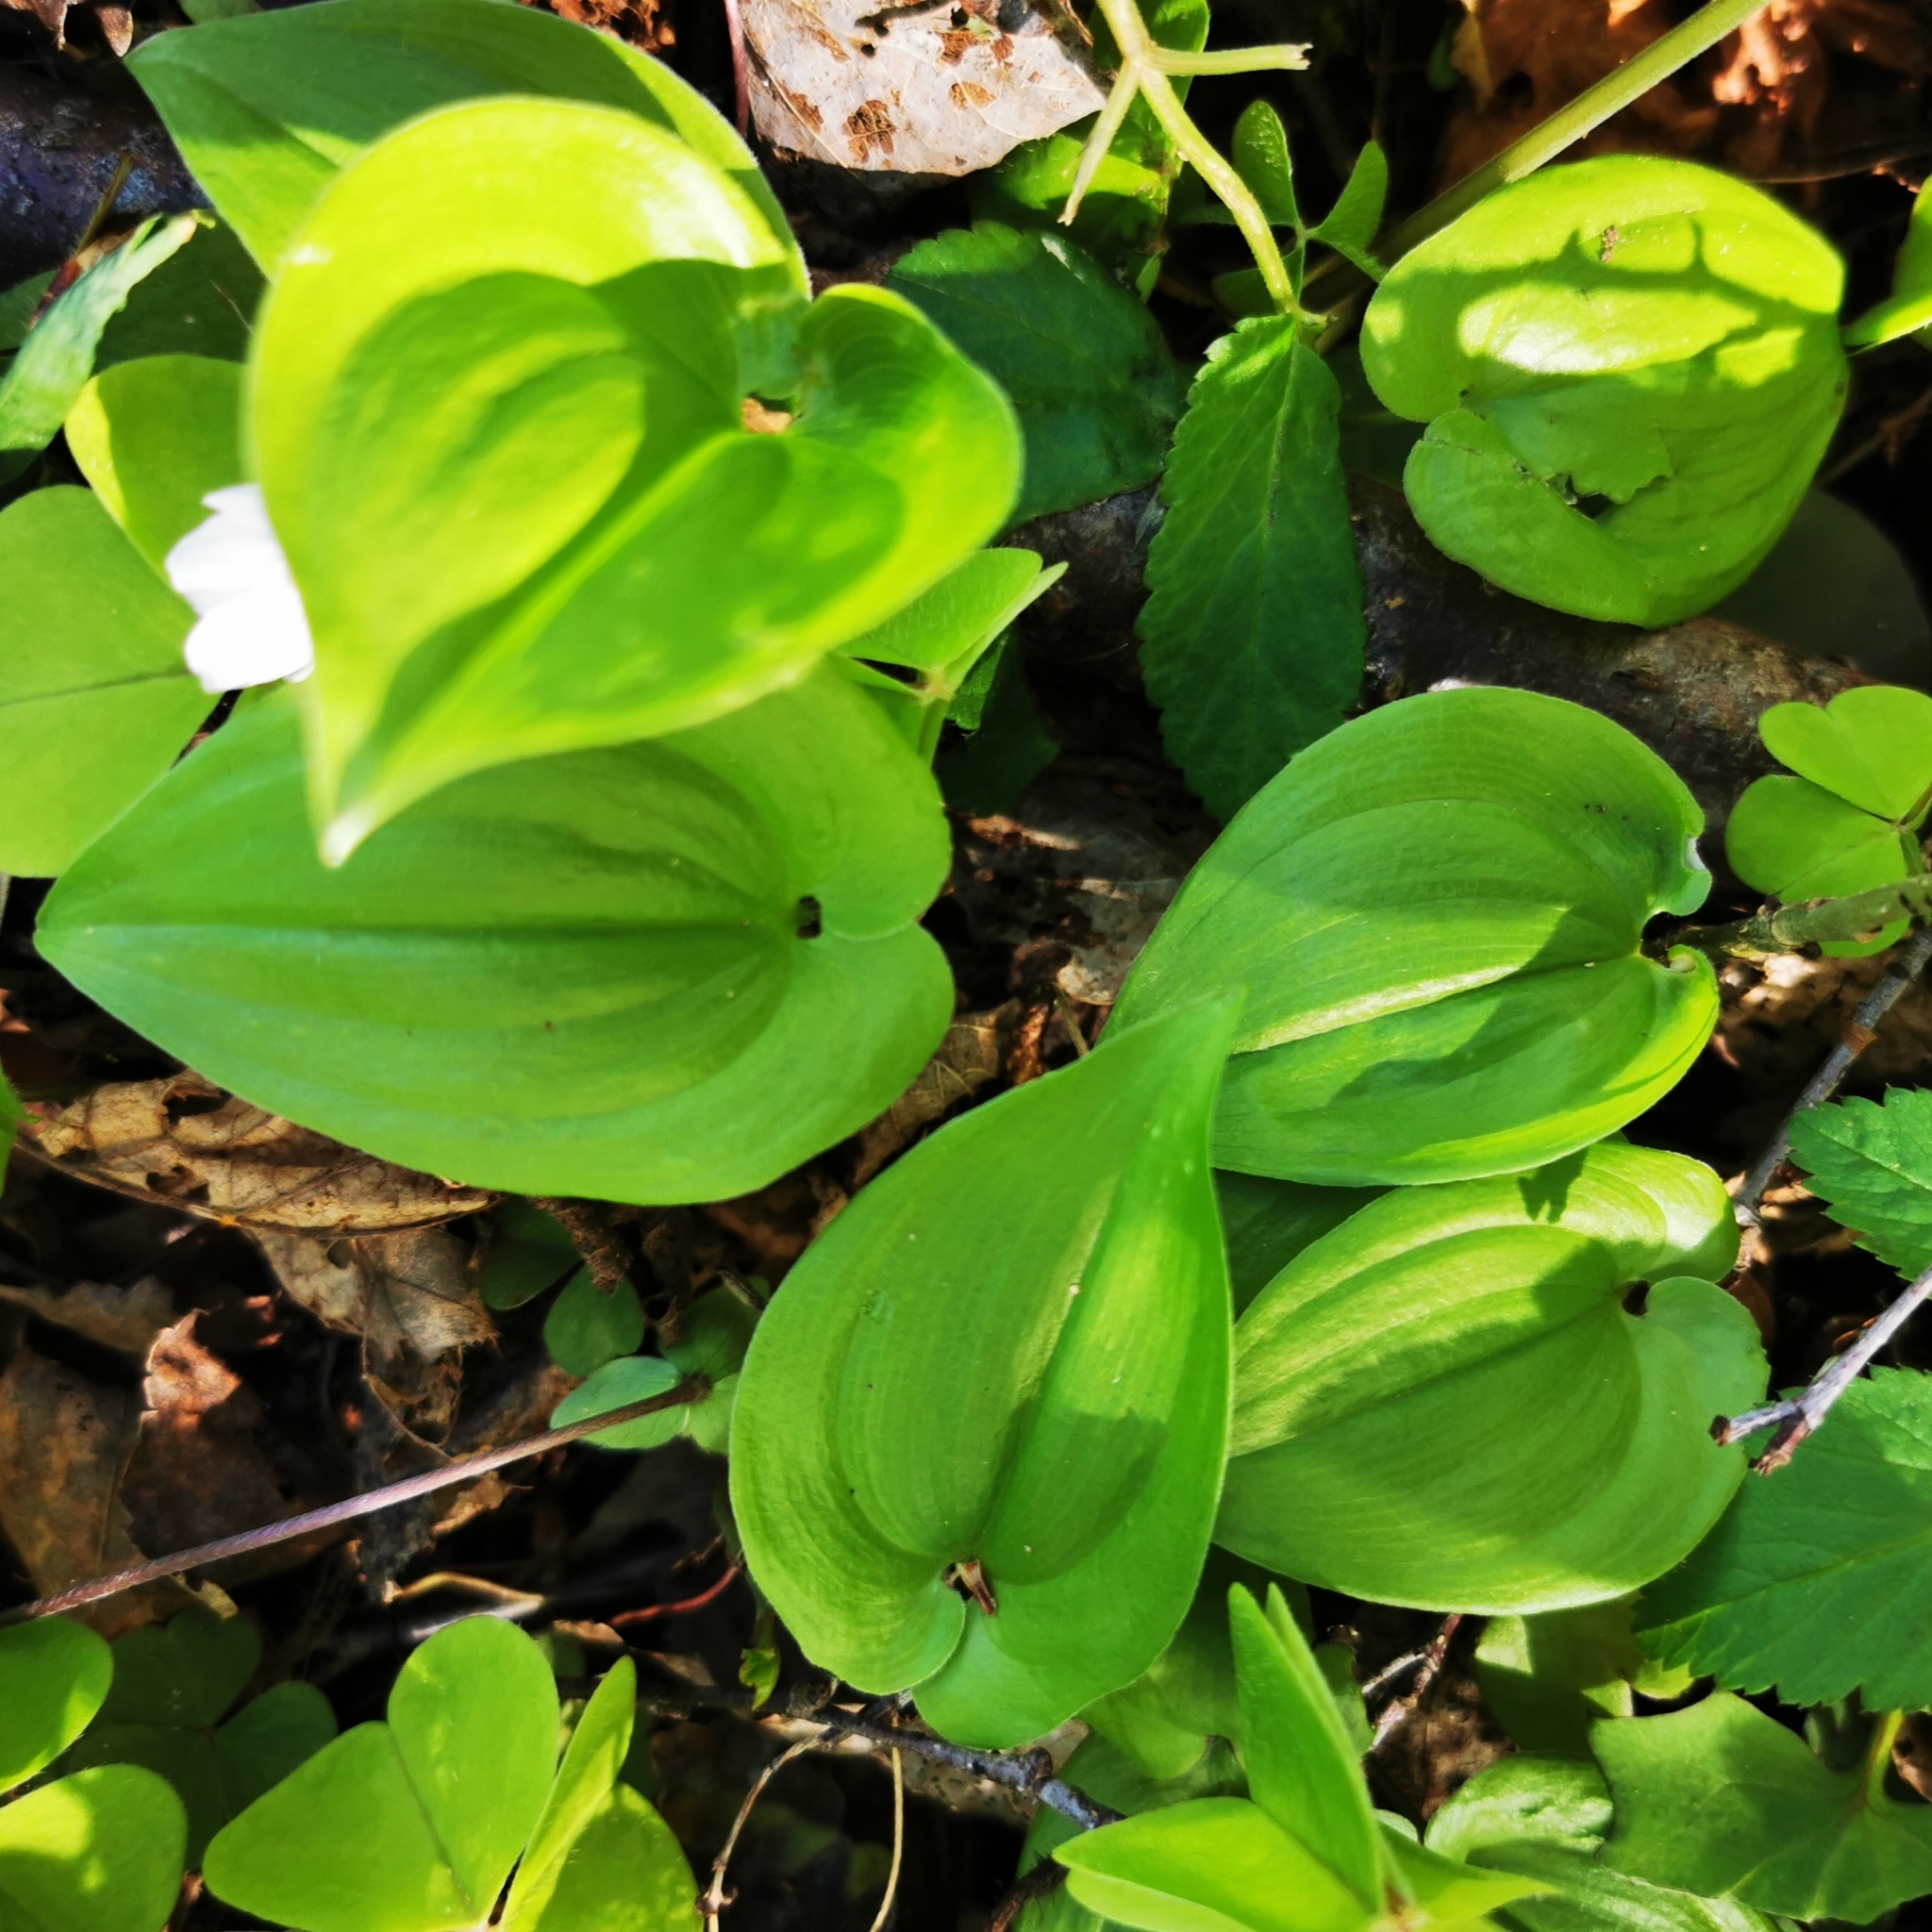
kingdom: Plantae
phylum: Tracheophyta
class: Liliopsida
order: Asparagales
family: Asparagaceae
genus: Maianthemum
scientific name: Maianthemum bifolium
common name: May lily
